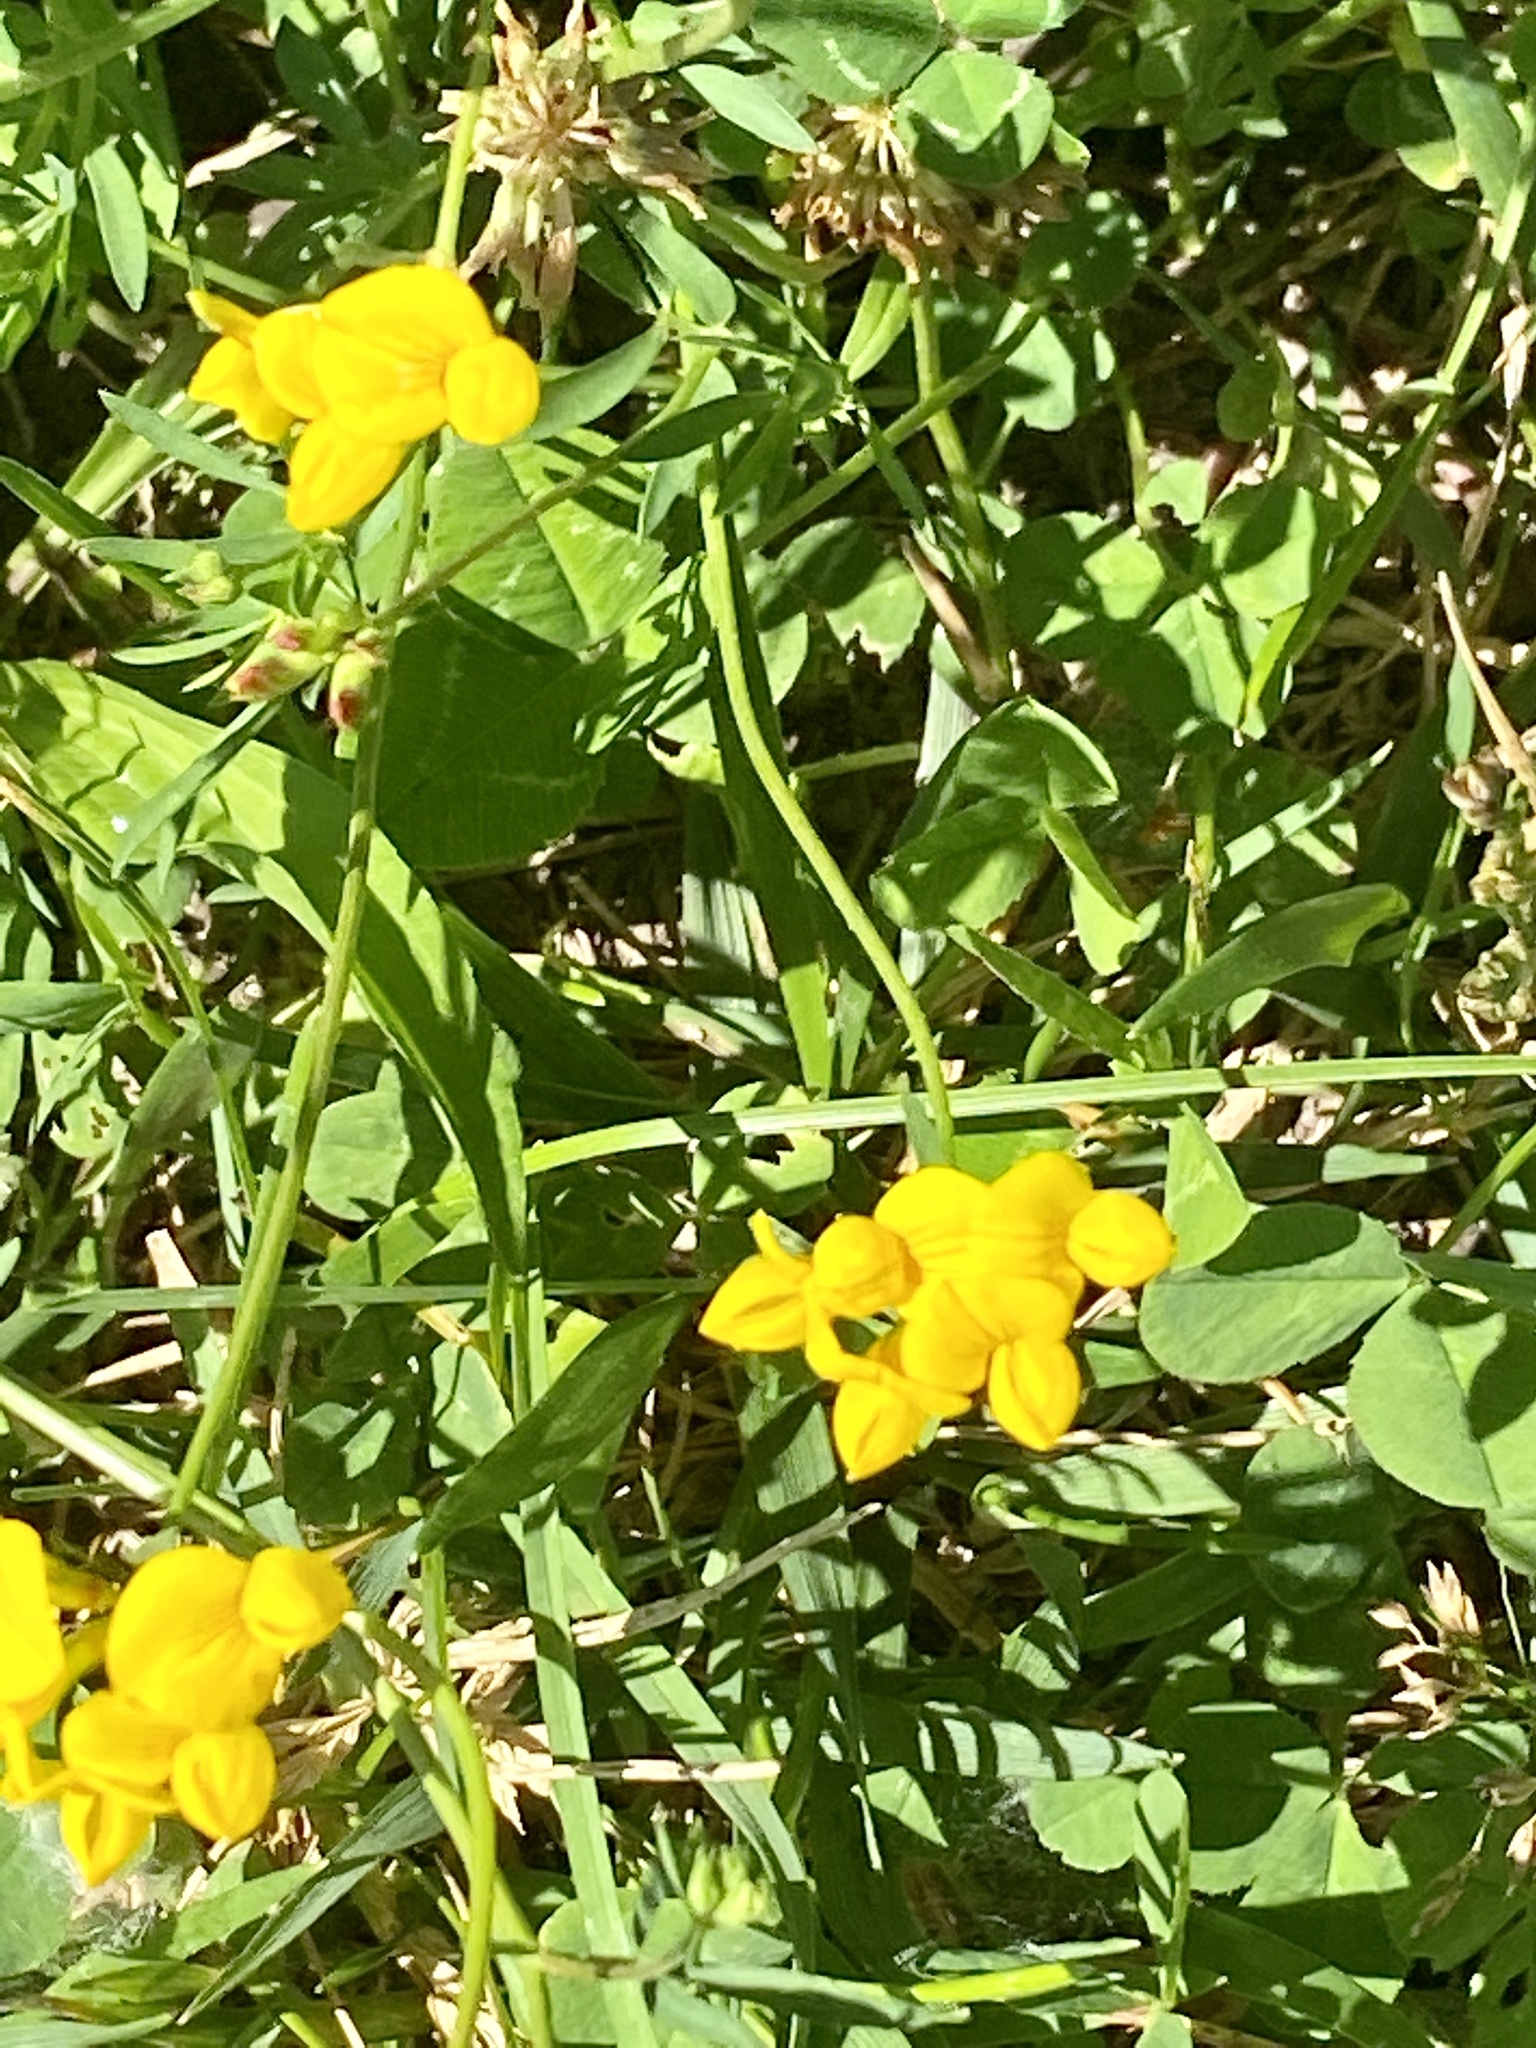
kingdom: Plantae
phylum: Tracheophyta
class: Magnoliopsida
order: Fabales
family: Fabaceae
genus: Lotus
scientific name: Lotus corniculatus
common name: Common bird's-foot-trefoil
